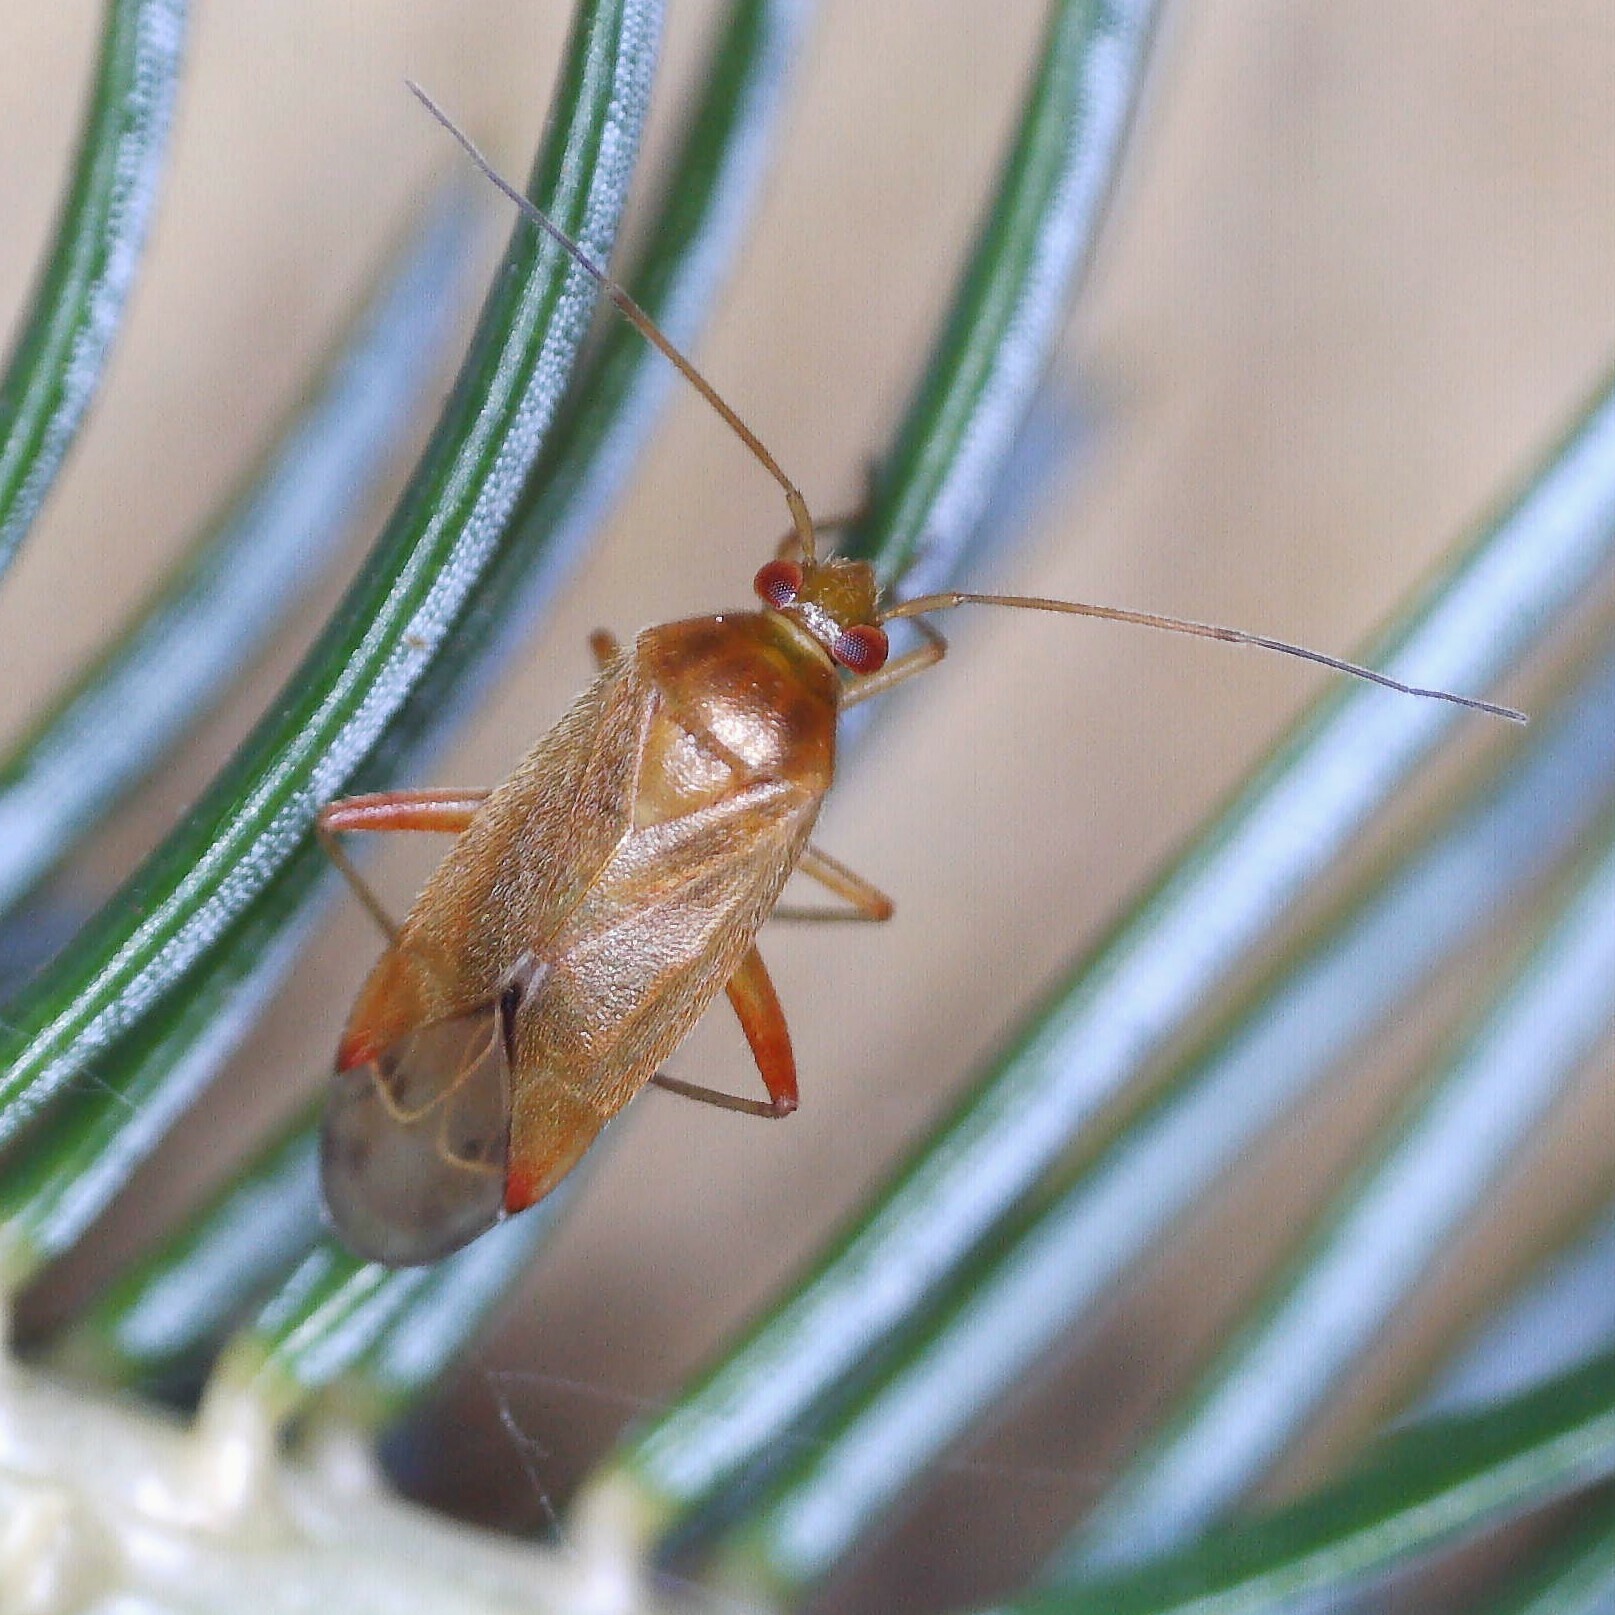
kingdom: Animalia
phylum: Arthropoda
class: Insecta
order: Hemiptera
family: Miridae
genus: Pinalitus
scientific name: Pinalitus rubricatus
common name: Plant bug
